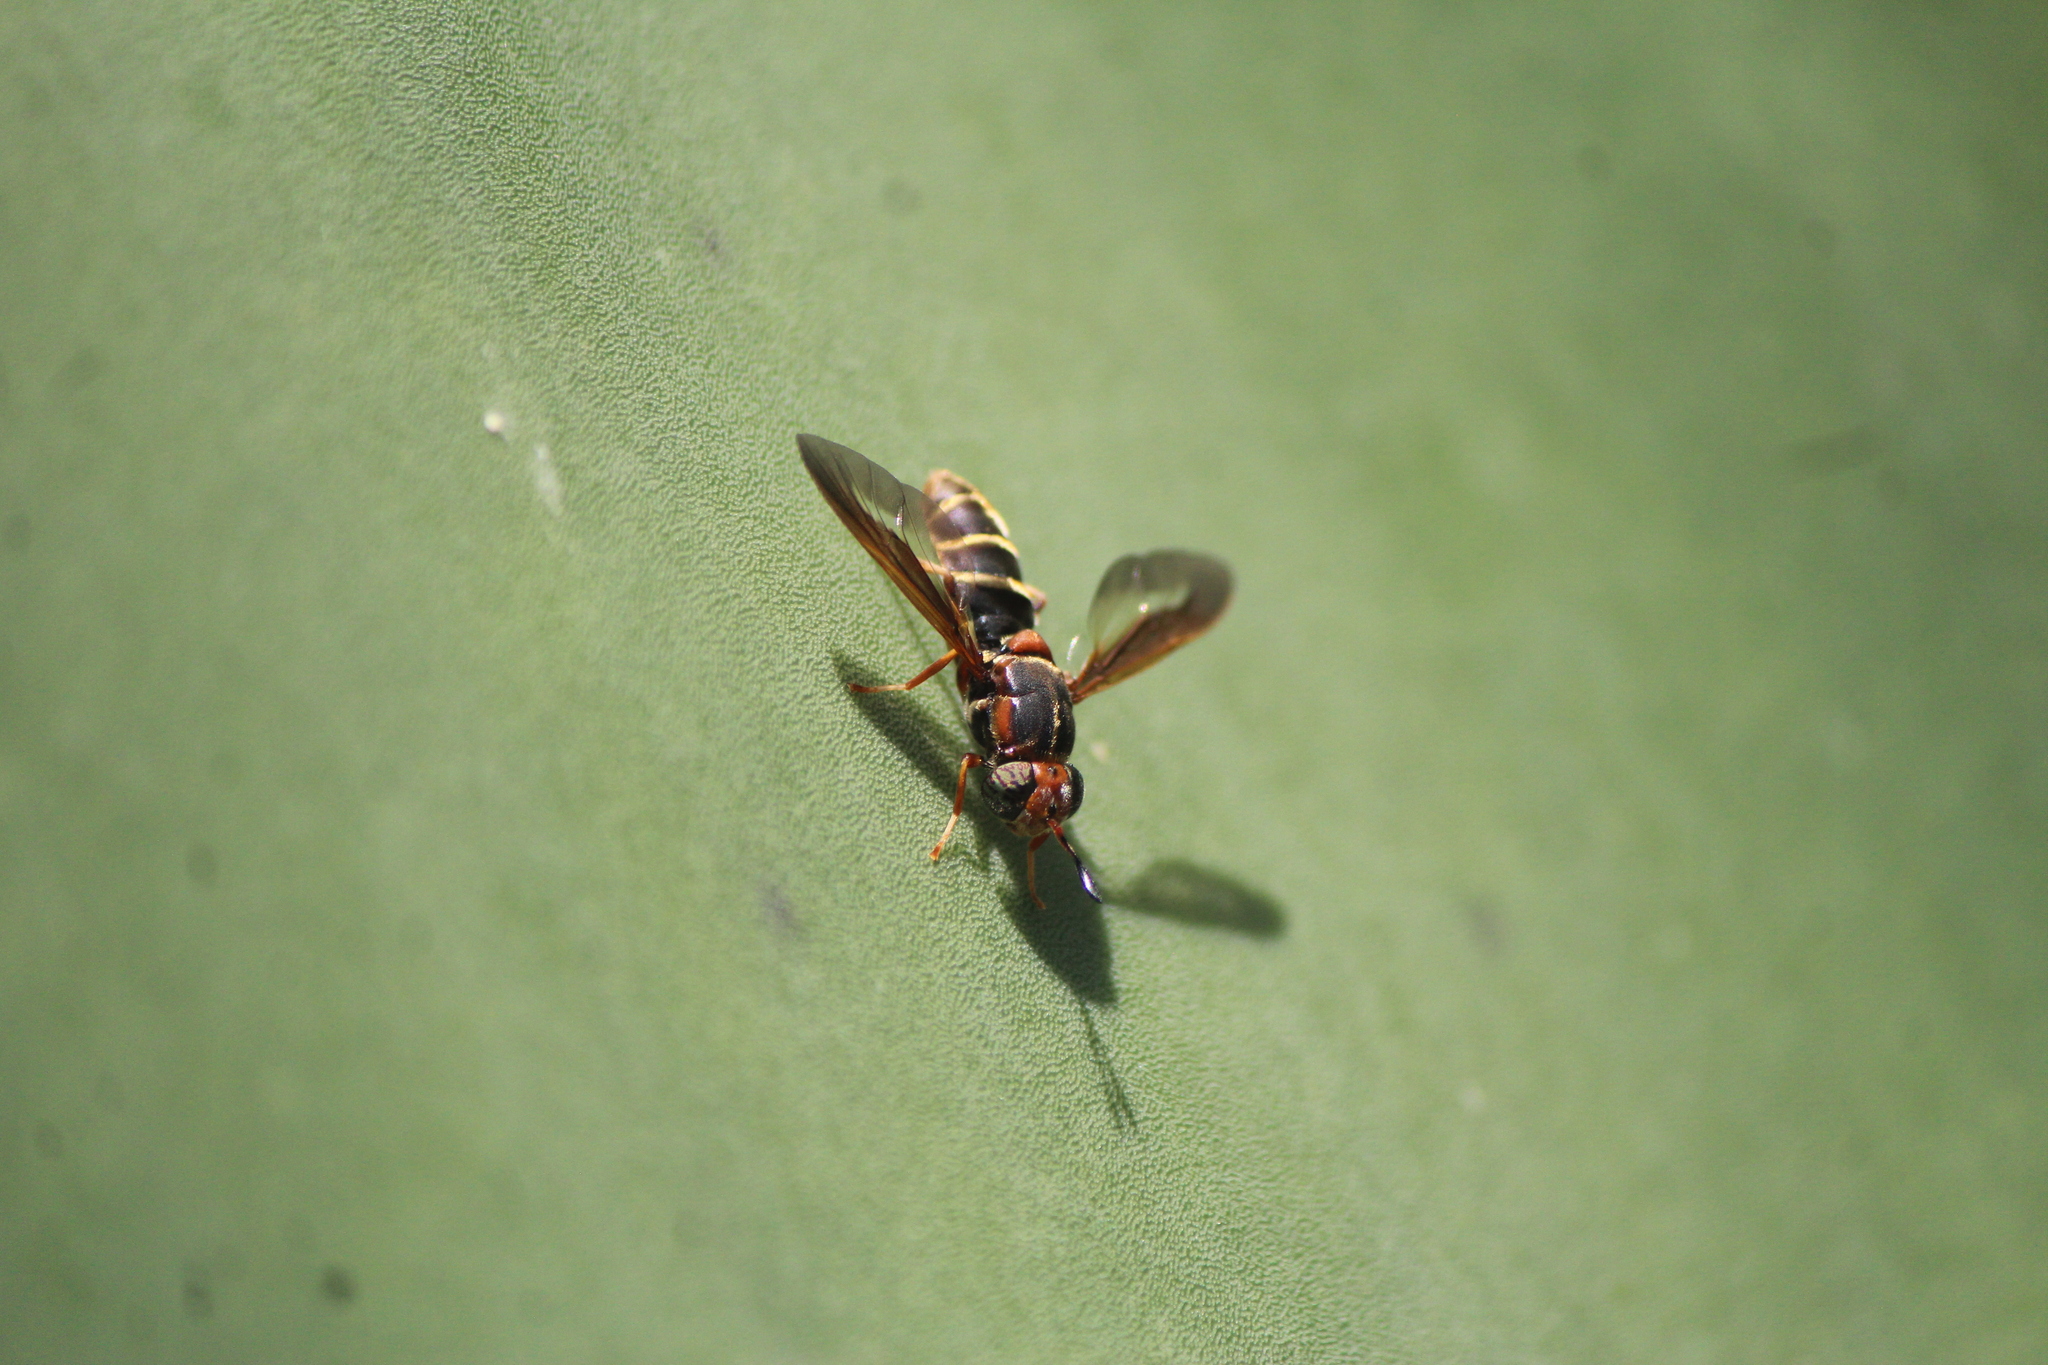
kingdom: Animalia
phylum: Arthropoda
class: Insecta
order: Diptera
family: Stratiomyidae
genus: Hermetia
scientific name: Hermetia comstocki
